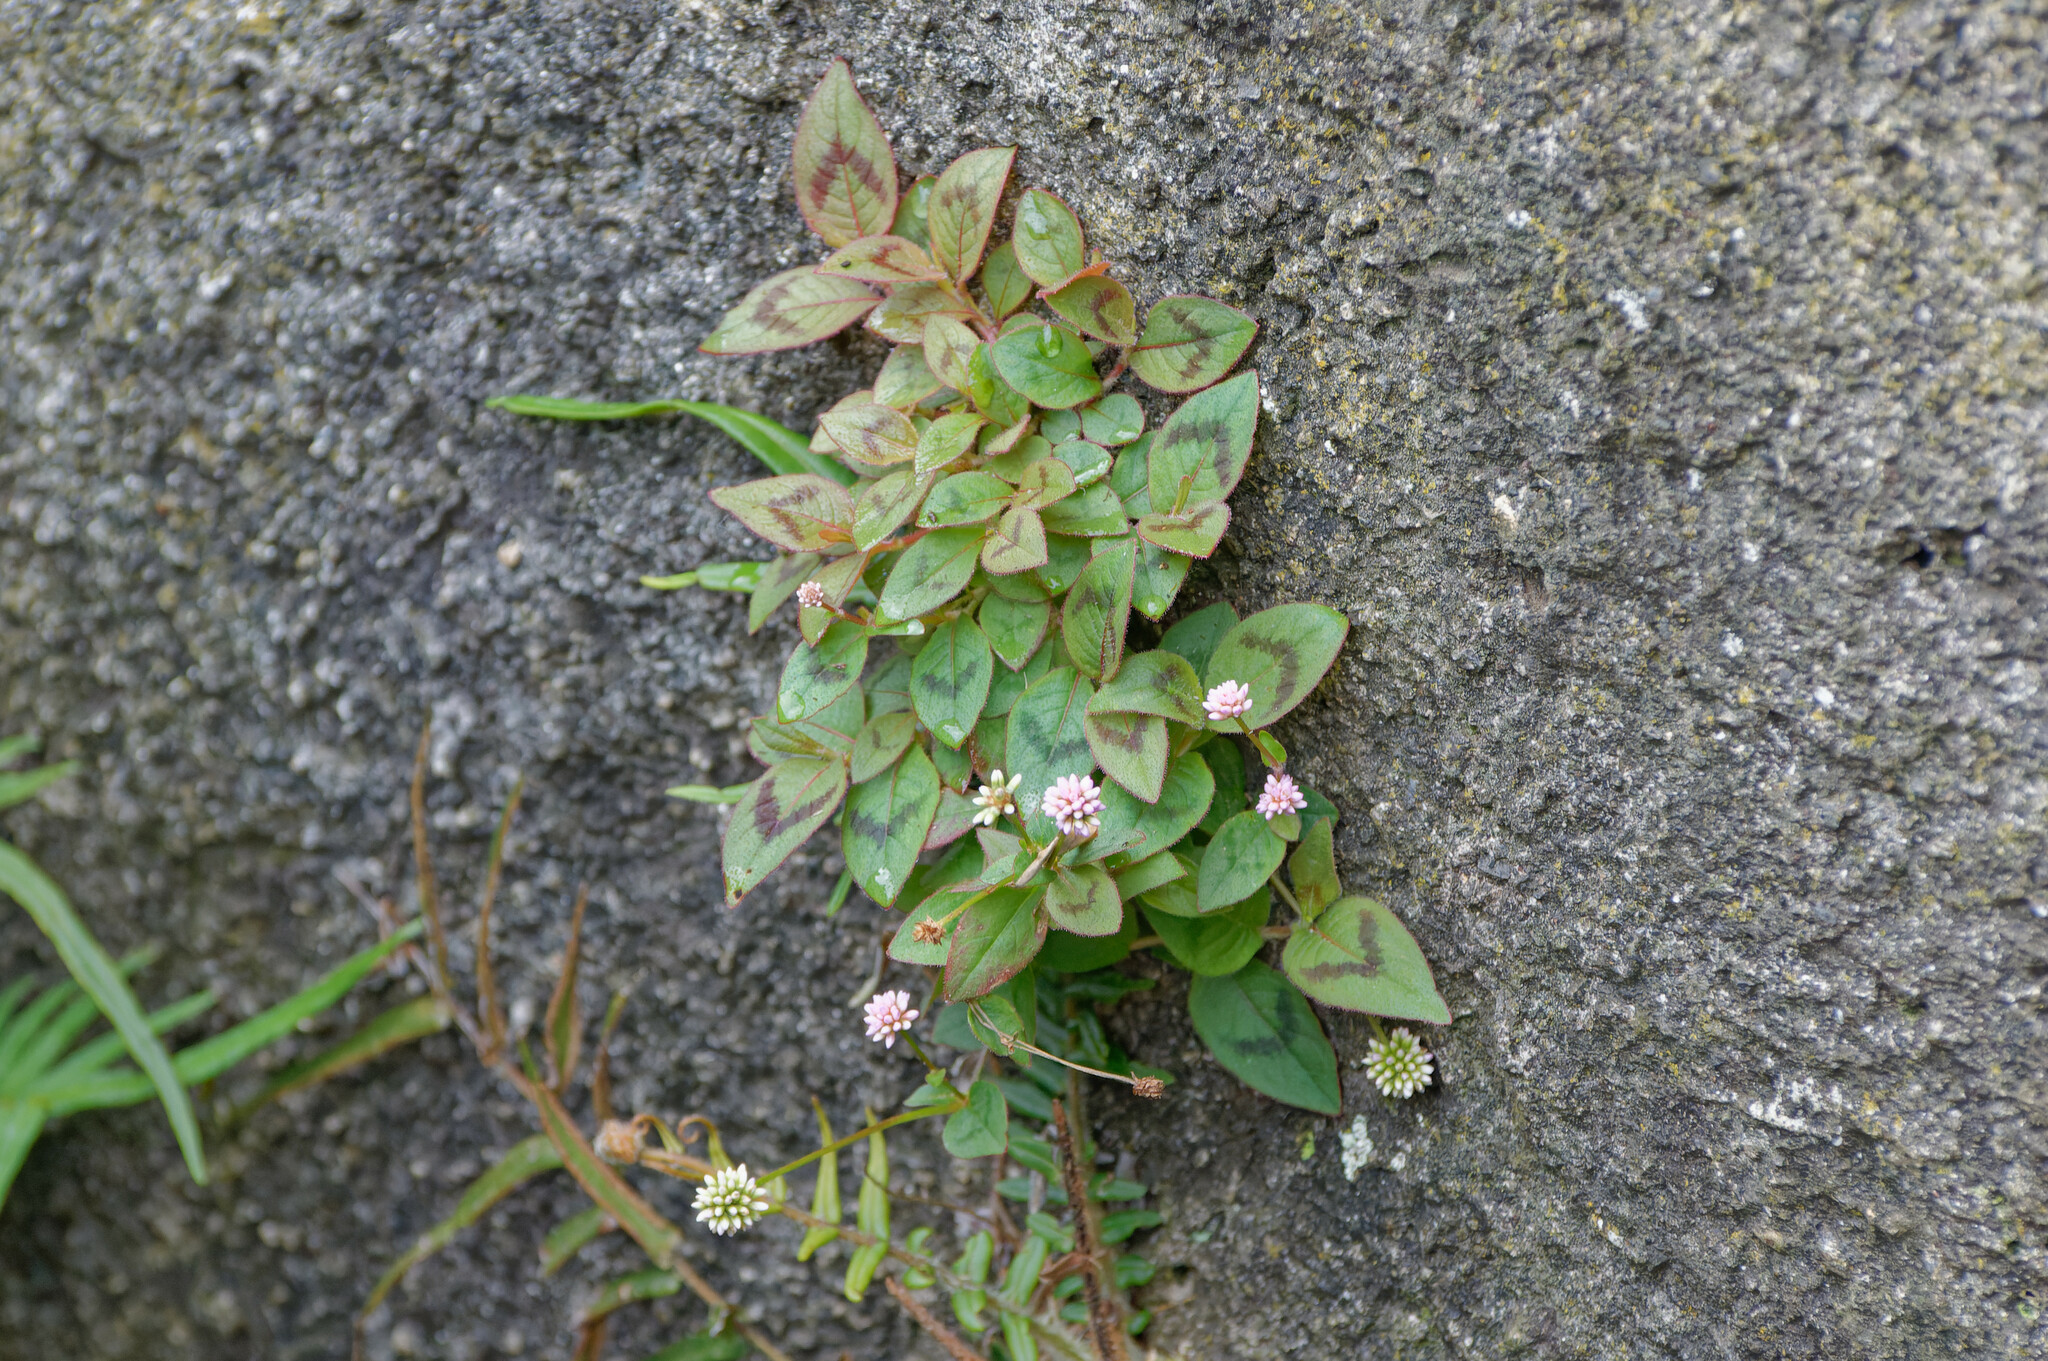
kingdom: Plantae
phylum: Tracheophyta
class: Magnoliopsida
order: Caryophyllales
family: Polygonaceae
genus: Persicaria
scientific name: Persicaria capitata
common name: Pinkhead smartweed
